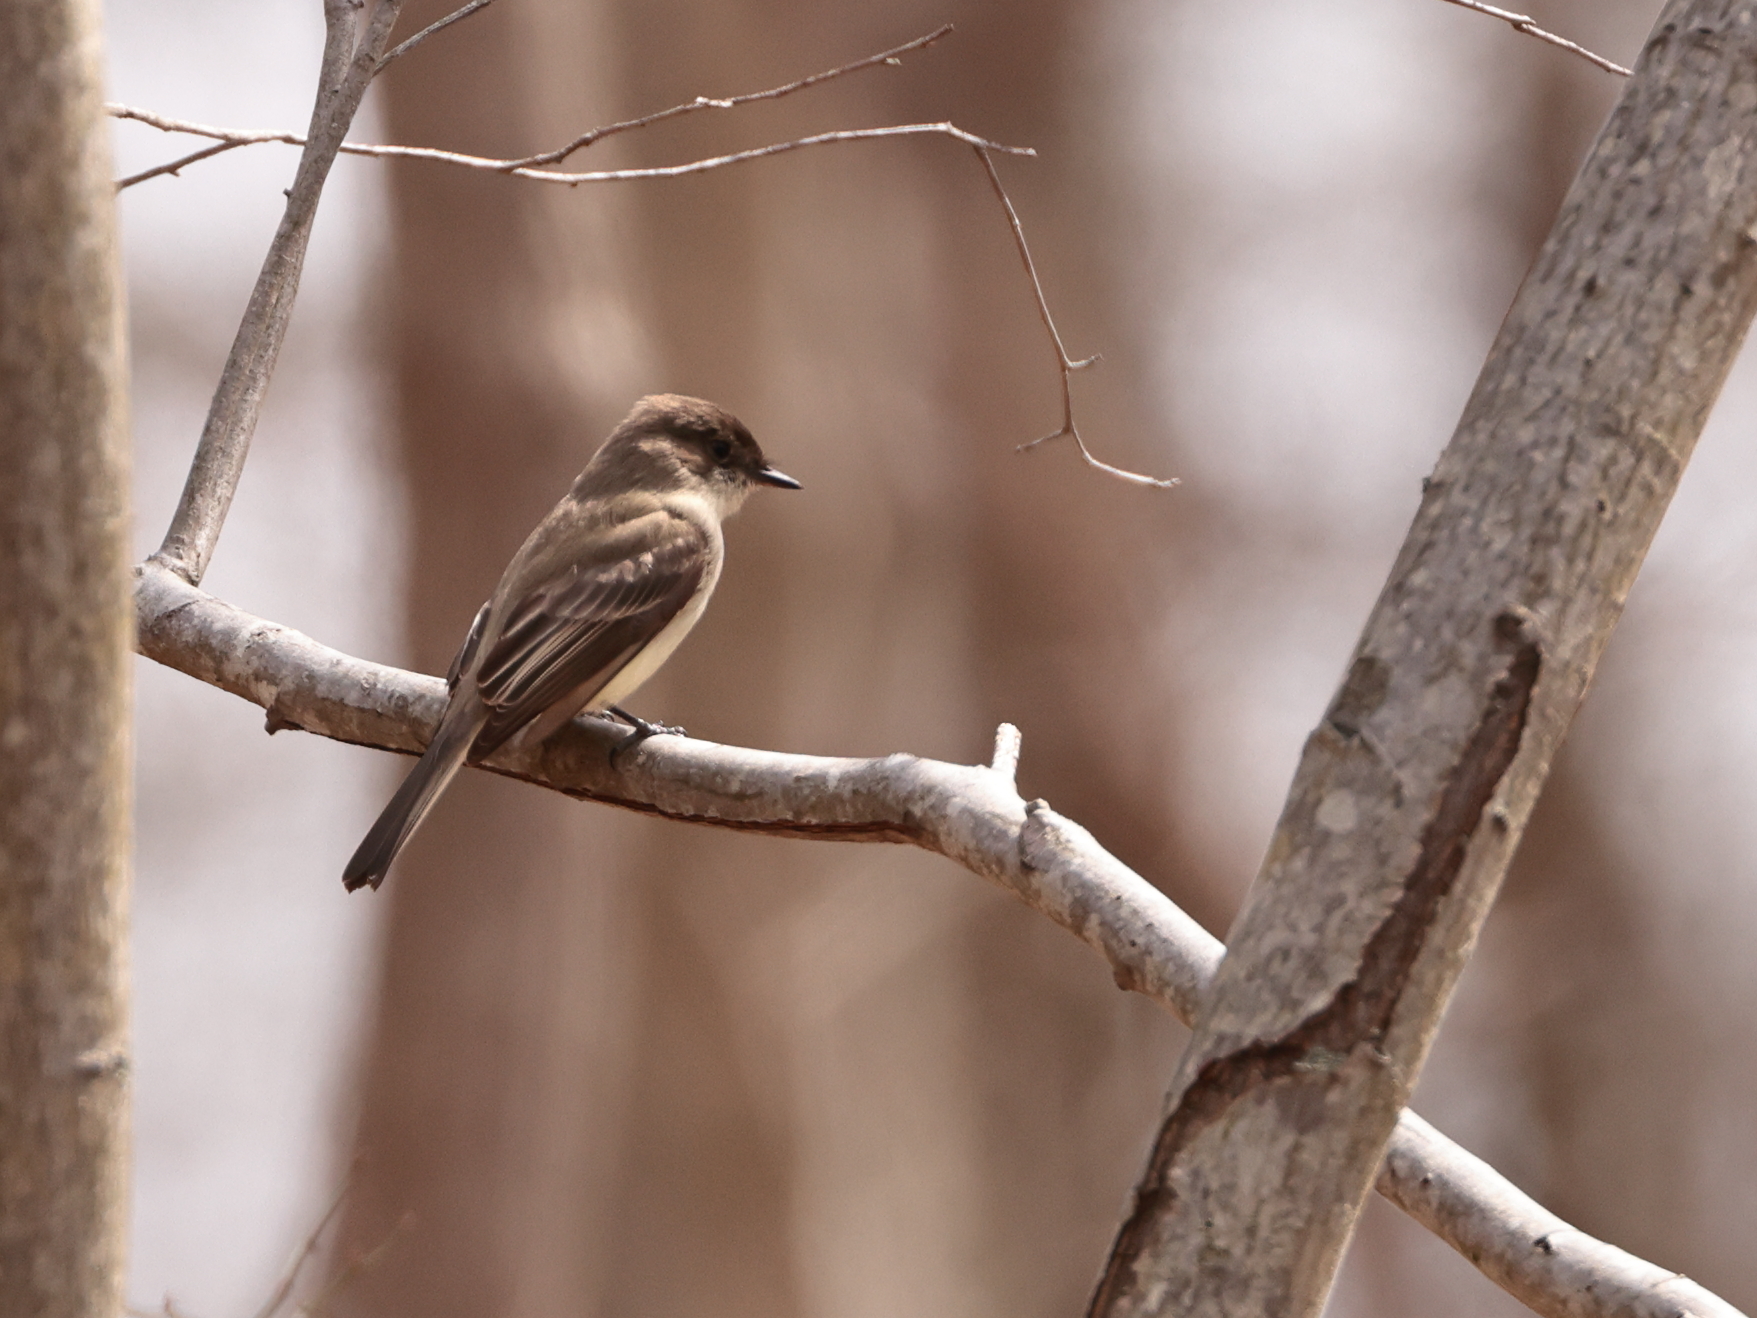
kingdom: Animalia
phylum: Chordata
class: Aves
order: Passeriformes
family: Tyrannidae
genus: Sayornis
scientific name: Sayornis phoebe
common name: Eastern phoebe
